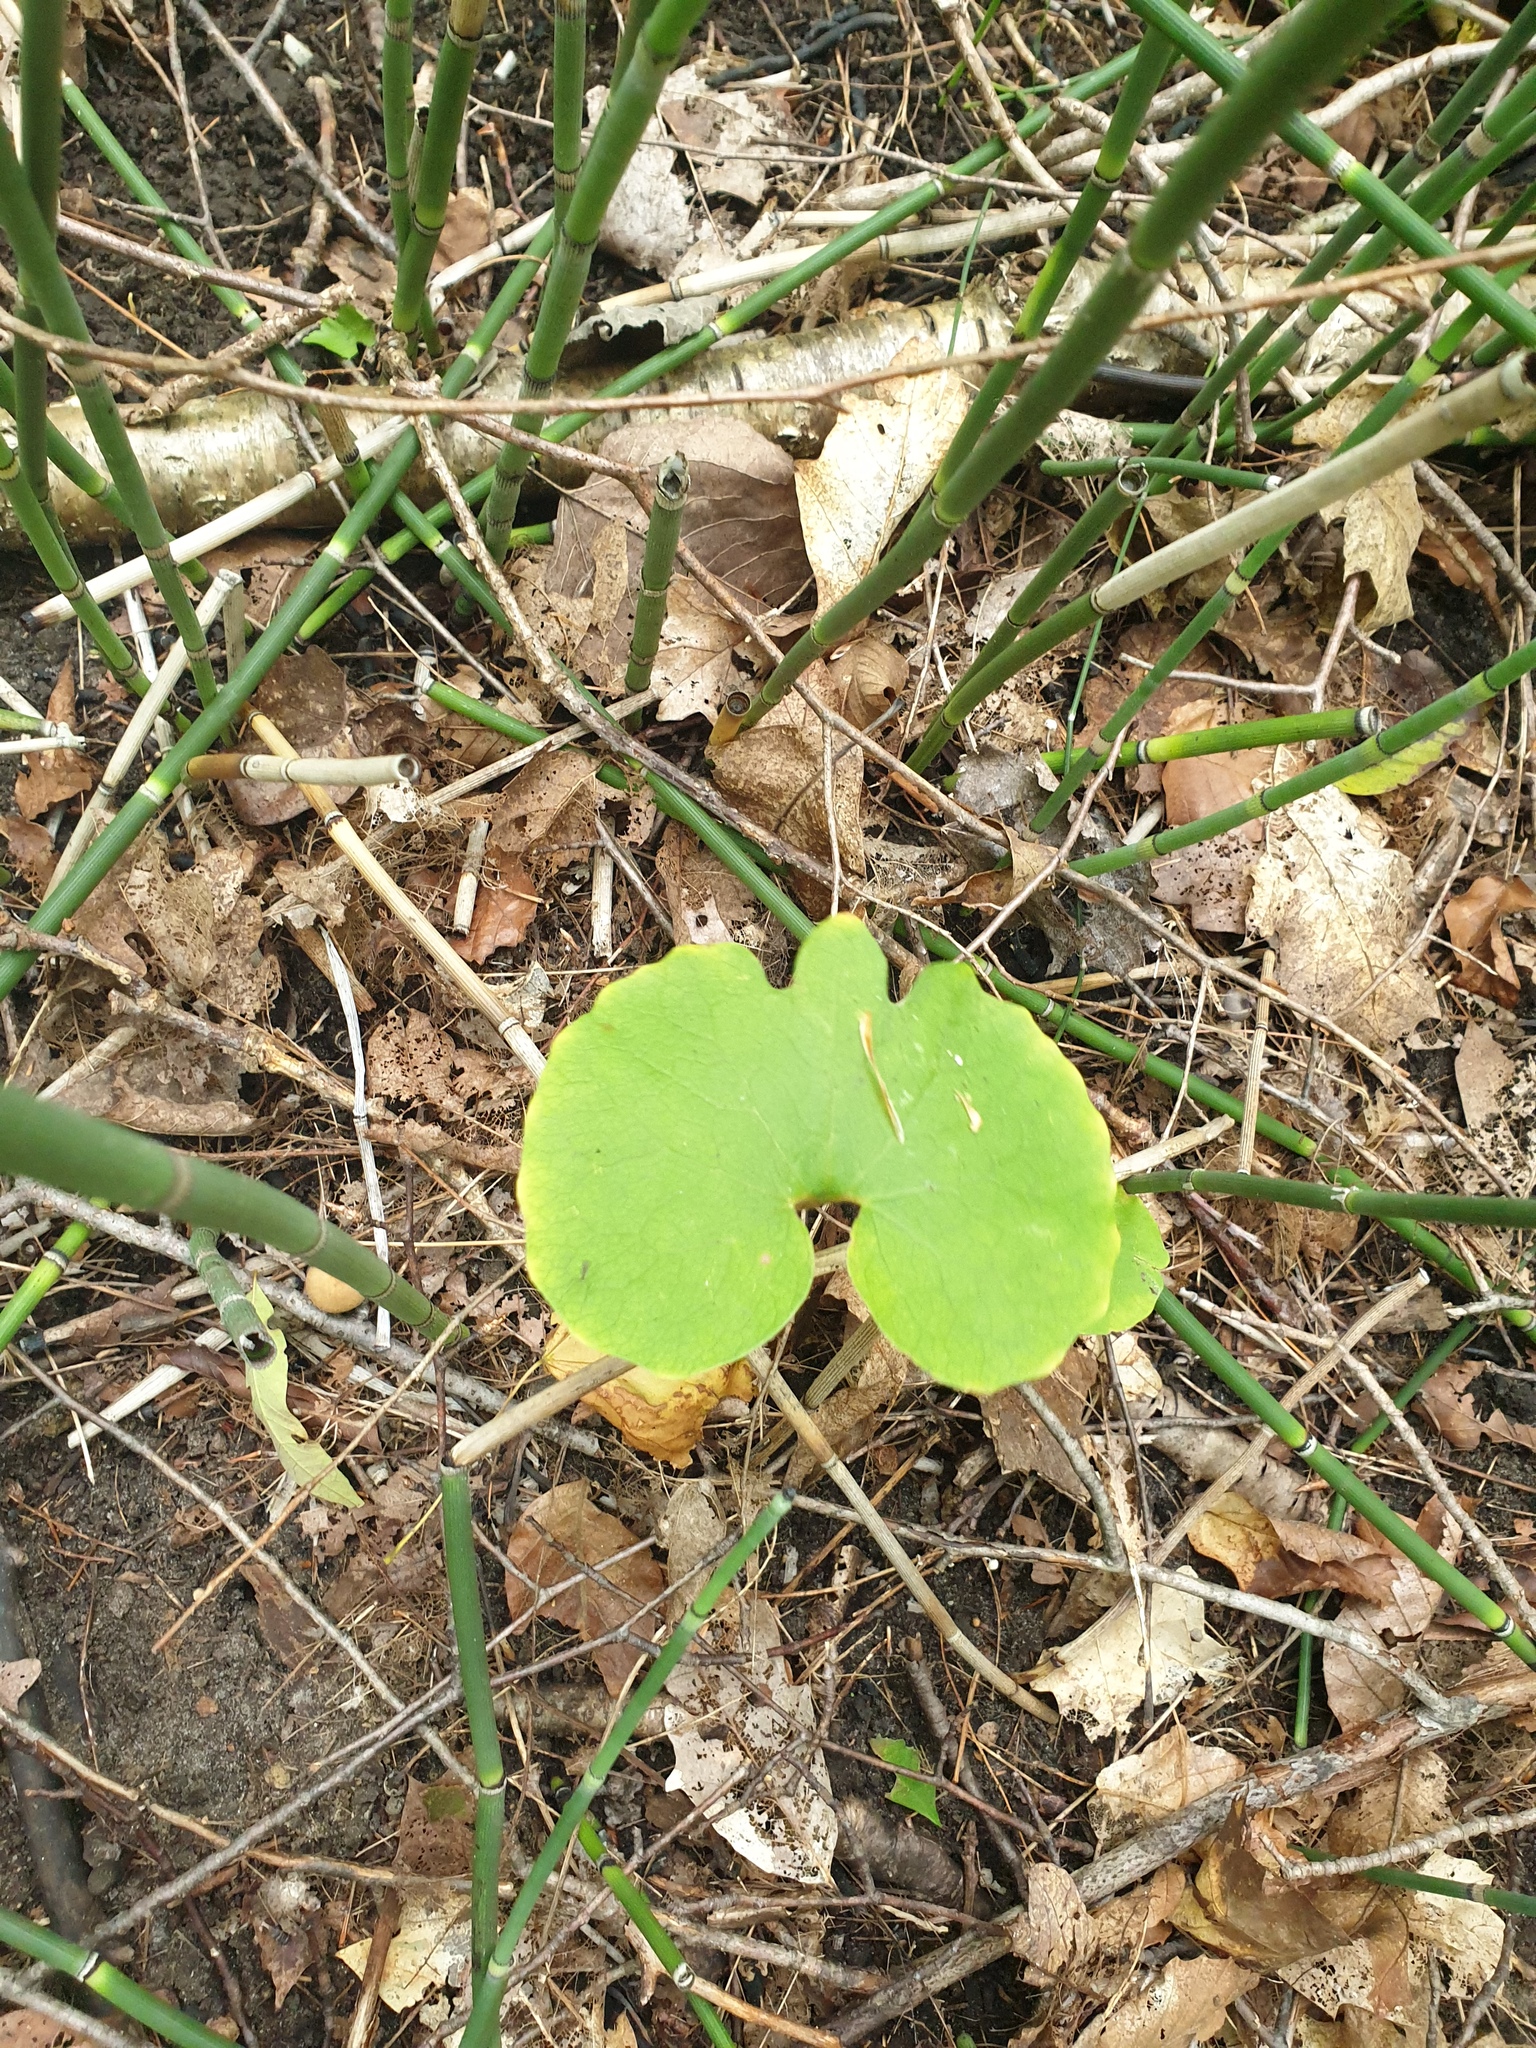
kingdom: Plantae
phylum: Tracheophyta
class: Magnoliopsida
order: Ranunculales
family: Papaveraceae
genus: Sanguinaria
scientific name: Sanguinaria canadensis
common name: Bloodroot
